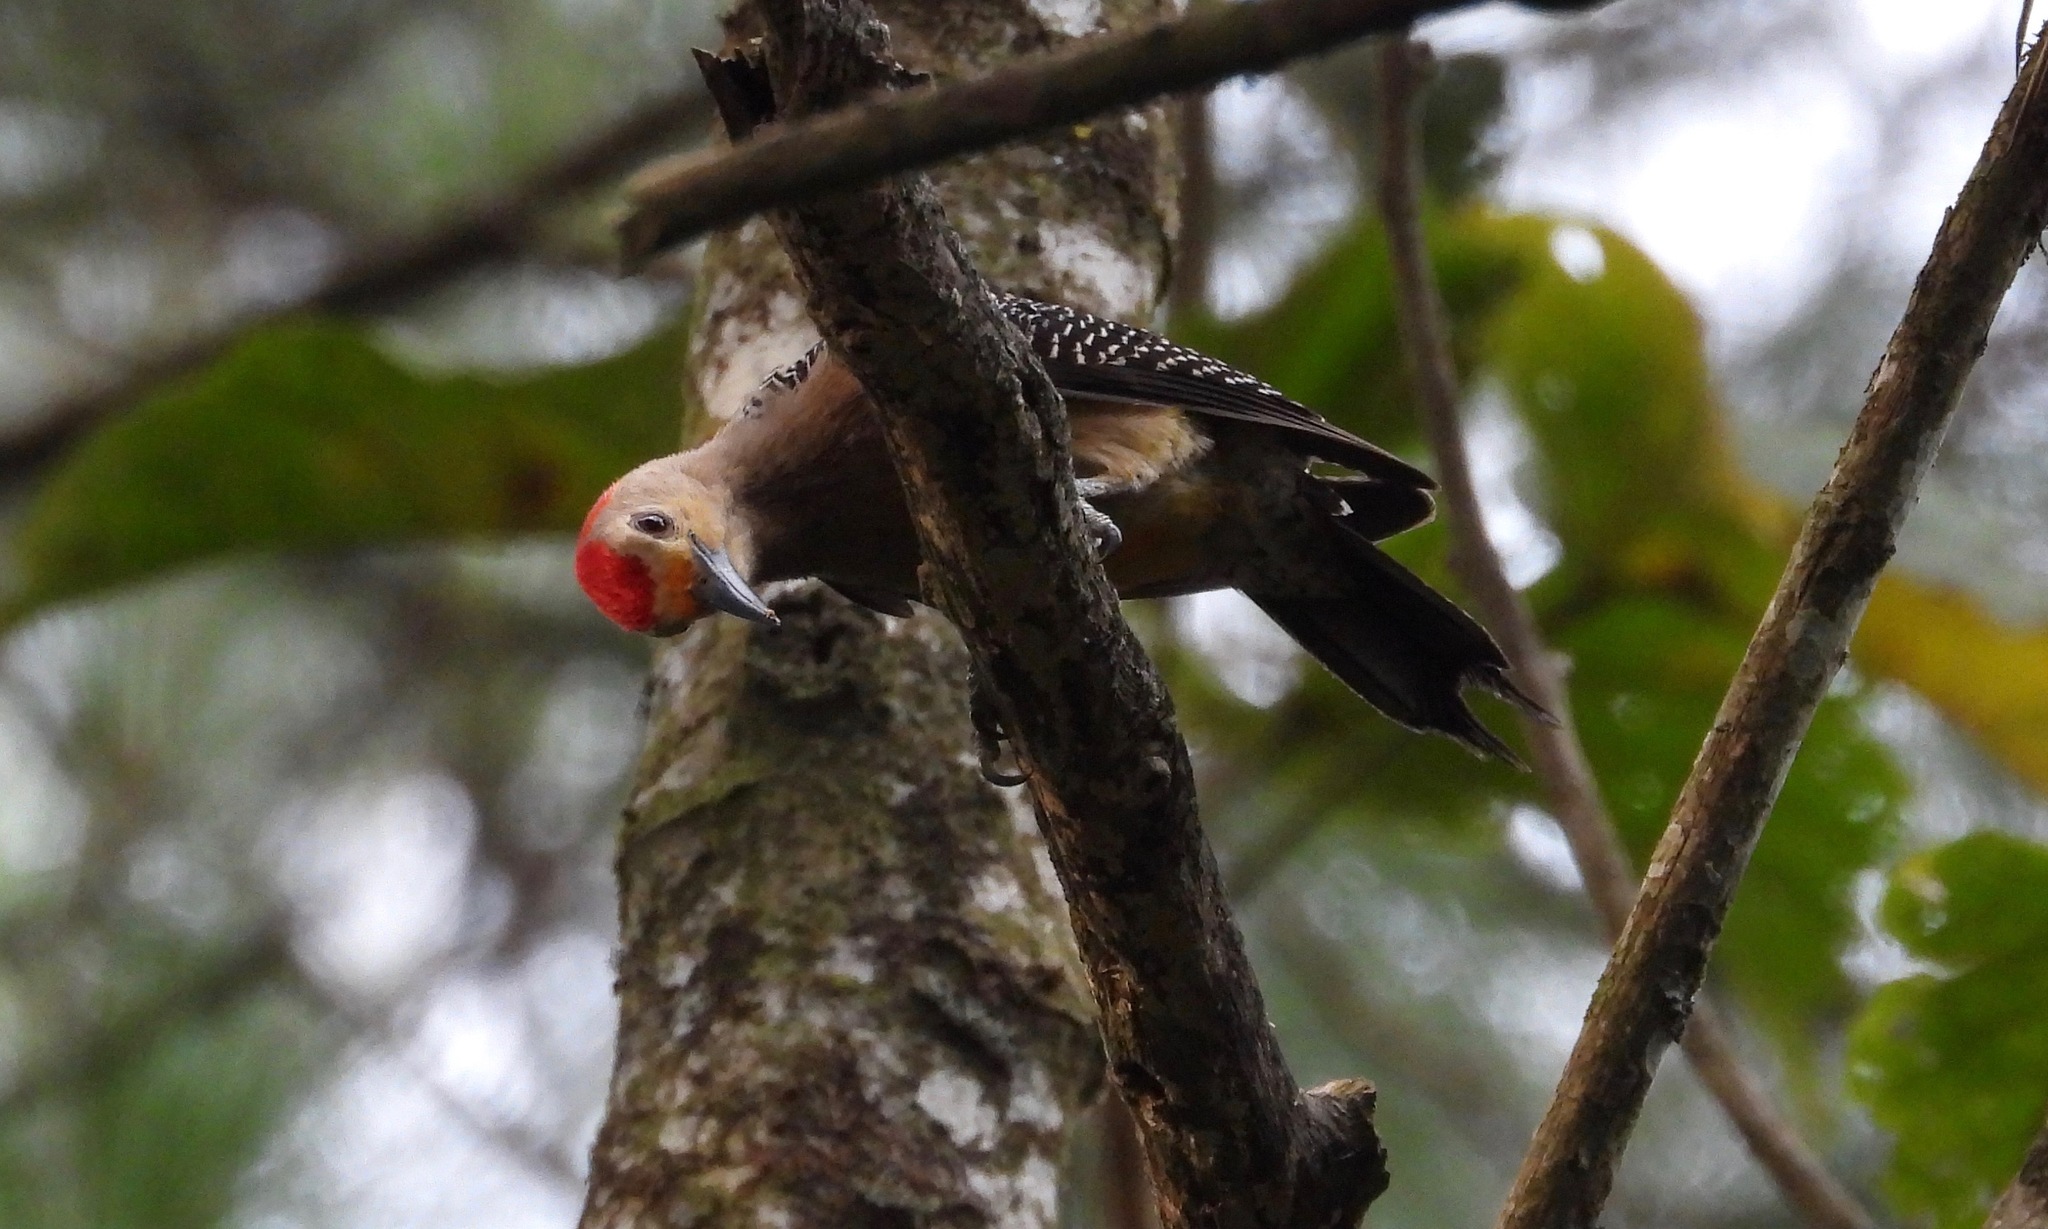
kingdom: Animalia
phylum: Chordata
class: Aves
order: Piciformes
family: Picidae
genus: Melanerpes
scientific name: Melanerpes aurifrons
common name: Golden-fronted woodpecker
